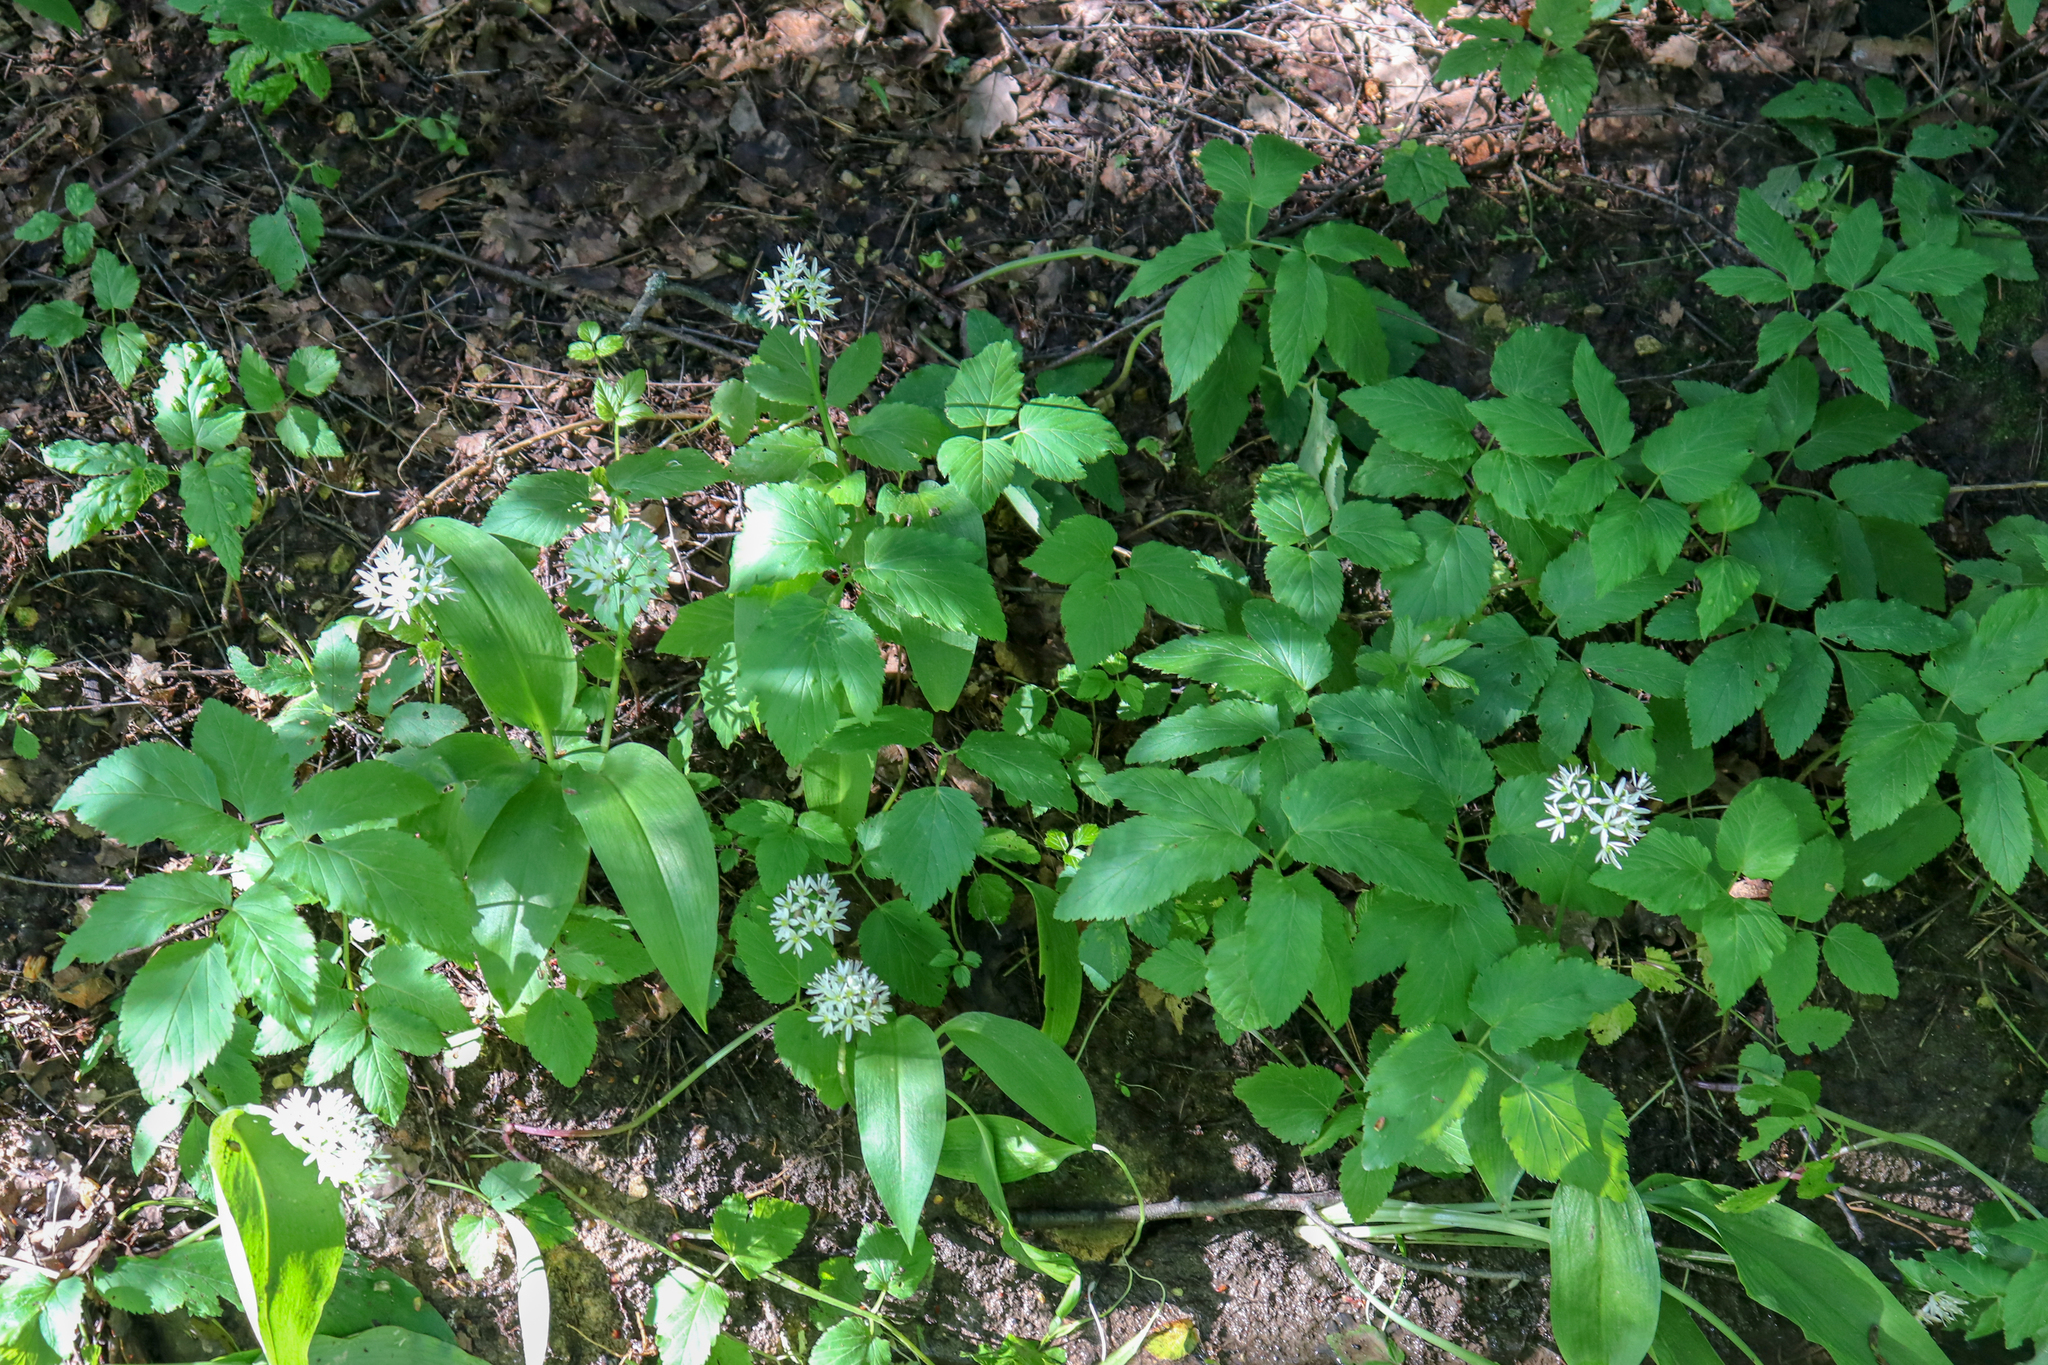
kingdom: Plantae
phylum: Tracheophyta
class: Liliopsida
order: Asparagales
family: Amaryllidaceae
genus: Allium
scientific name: Allium ursinum
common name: Ramsons
